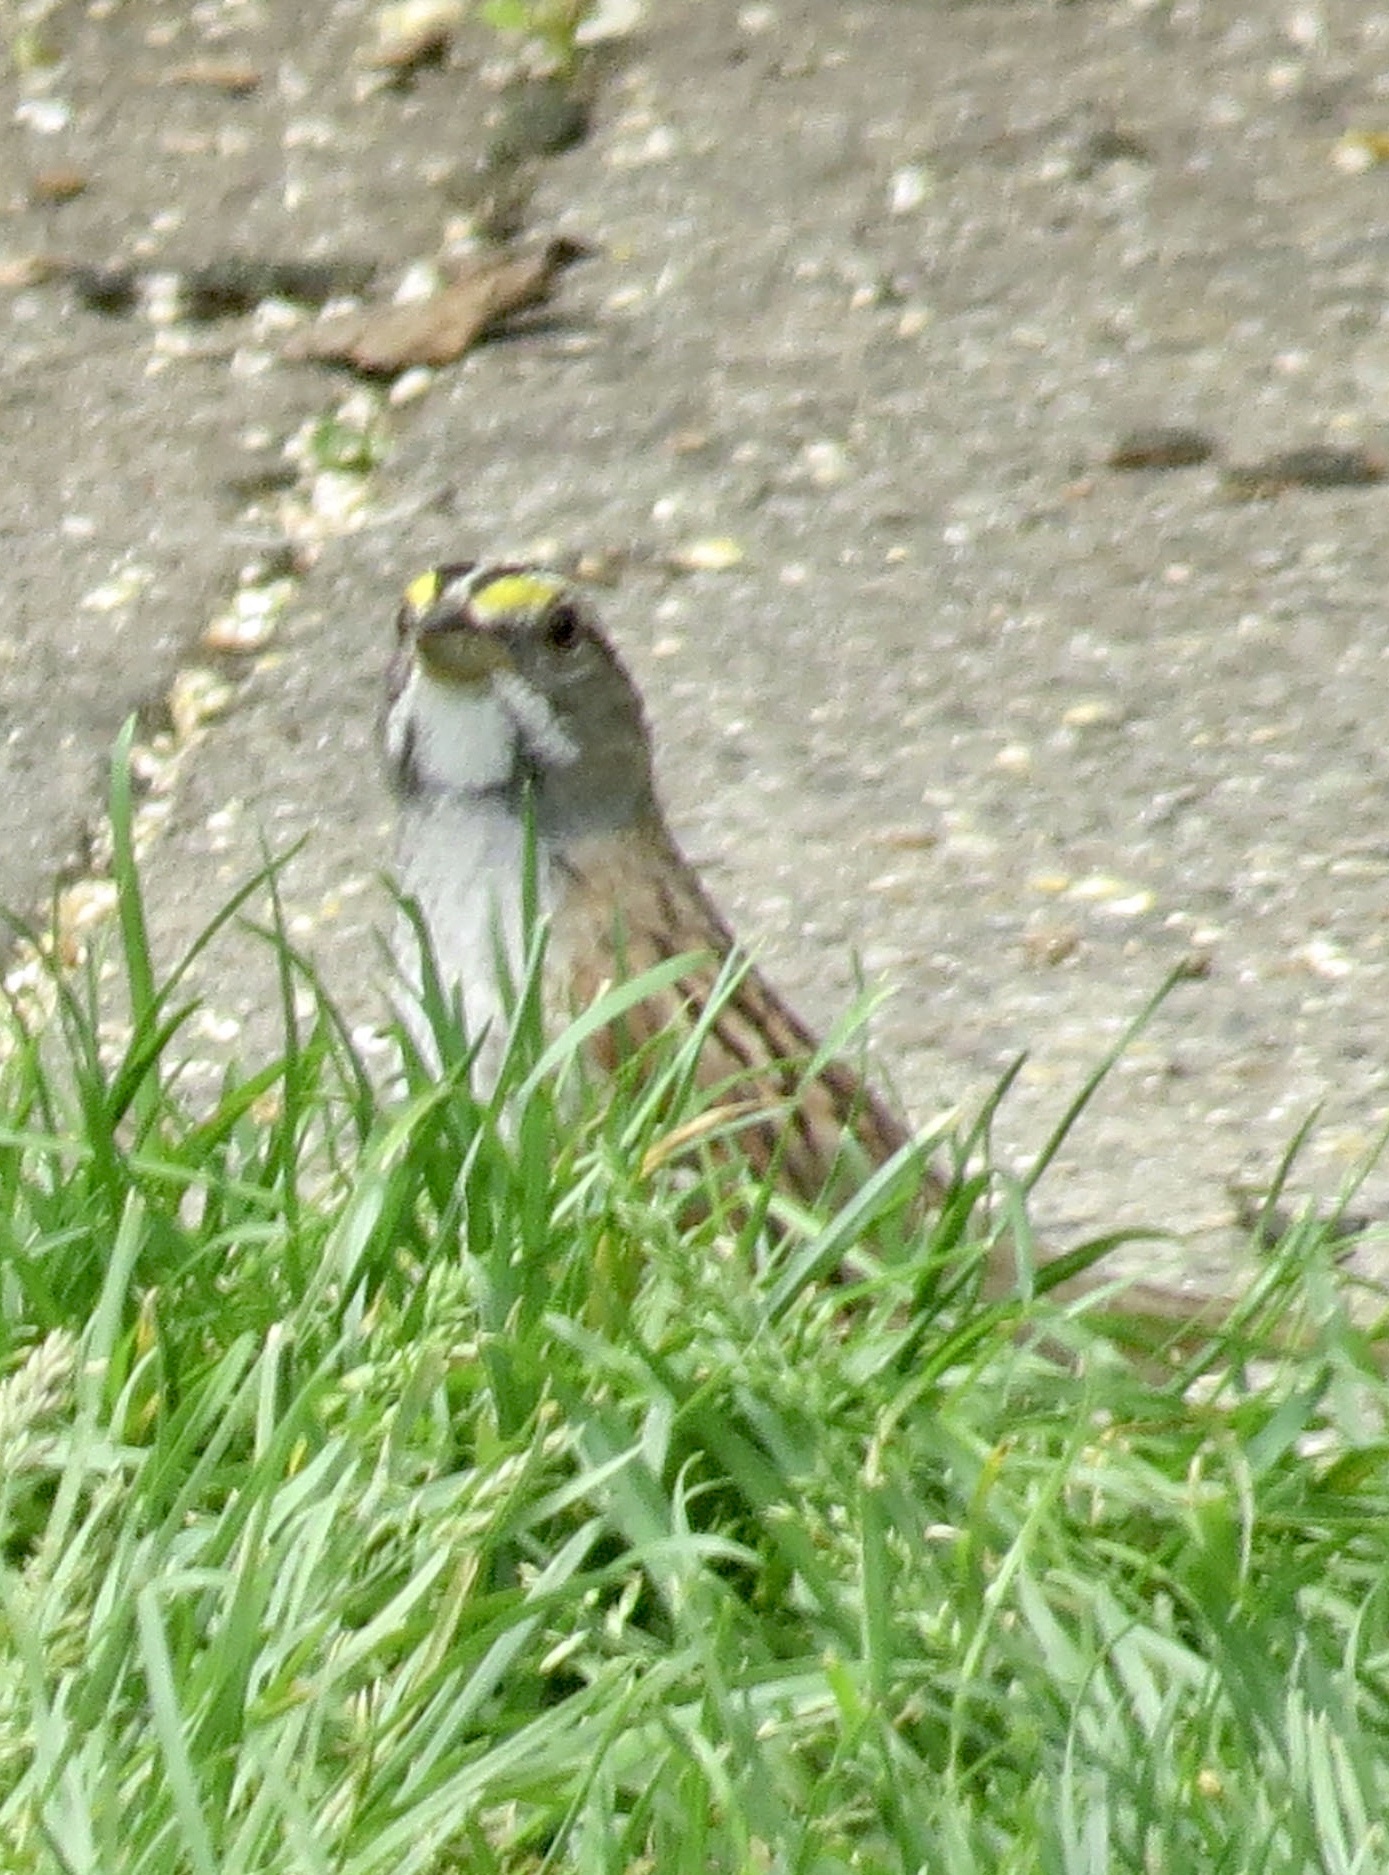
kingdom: Animalia
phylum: Chordata
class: Aves
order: Passeriformes
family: Passerellidae
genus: Zonotrichia
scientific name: Zonotrichia albicollis
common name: White-throated sparrow
